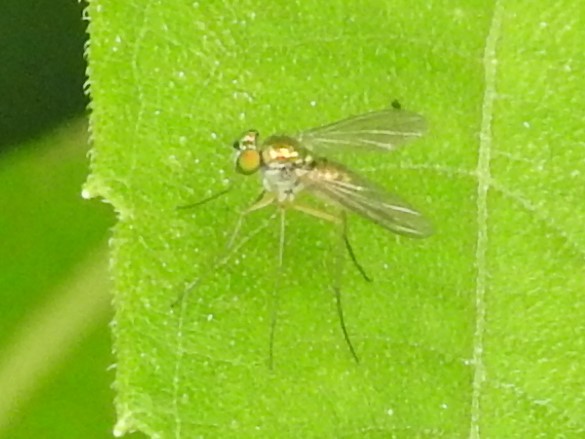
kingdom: Animalia
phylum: Arthropoda
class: Insecta
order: Diptera
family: Dolichopodidae
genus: Amblypsilopus
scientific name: Amblypsilopus scintillans
